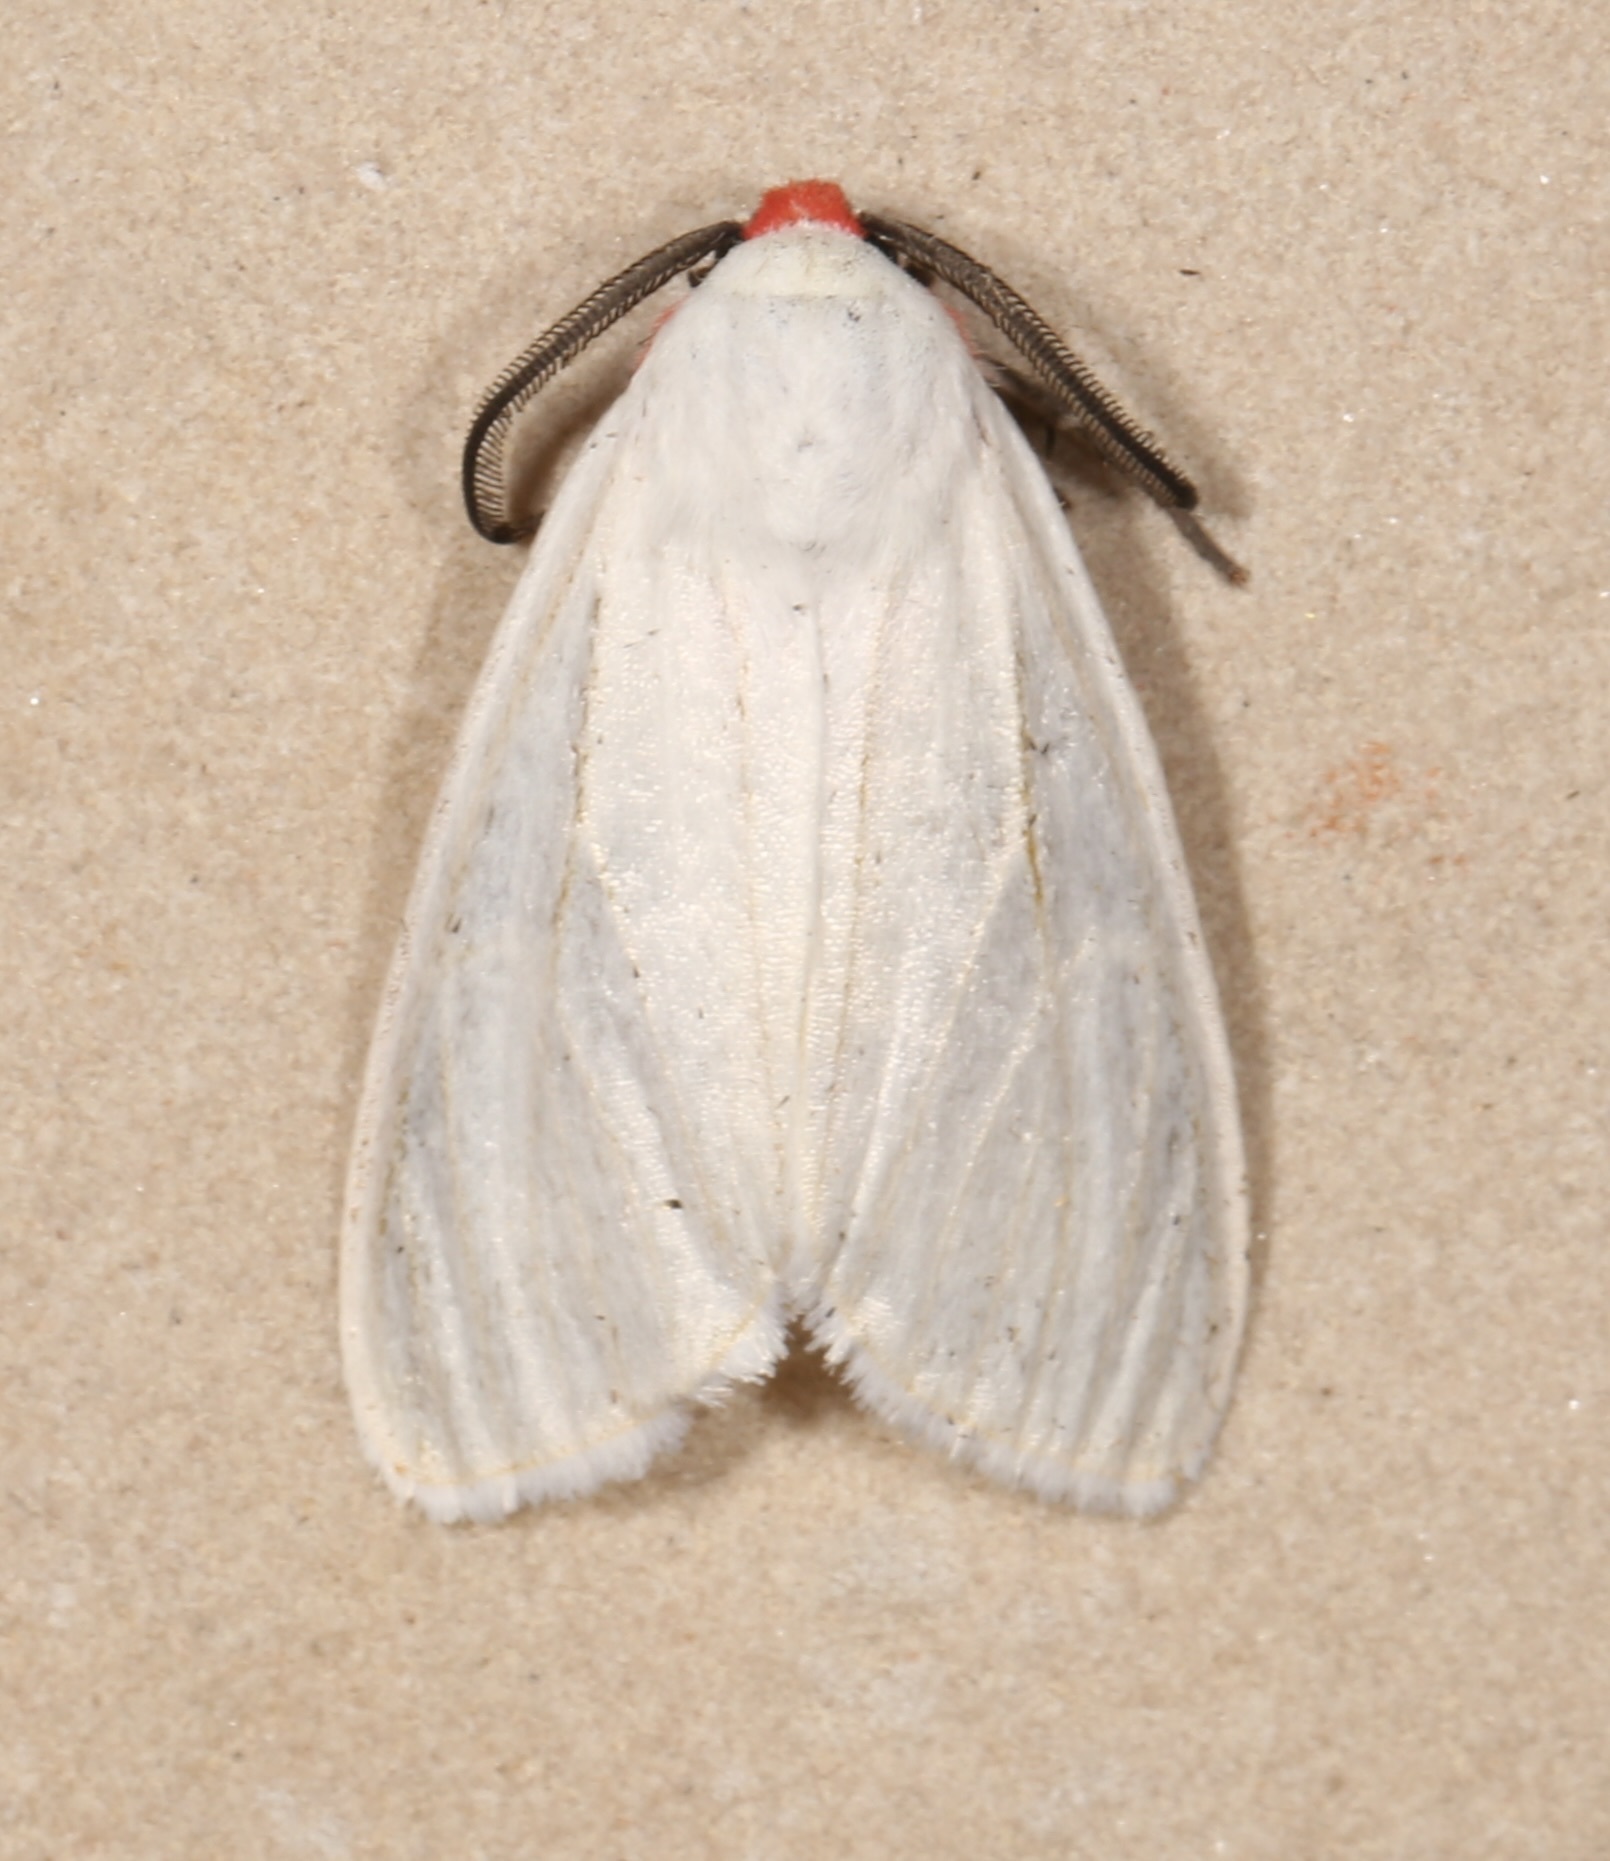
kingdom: Animalia
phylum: Arthropoda
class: Insecta
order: Lepidoptera
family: Erebidae
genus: Pygarctia
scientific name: Pygarctia roseicapitis
